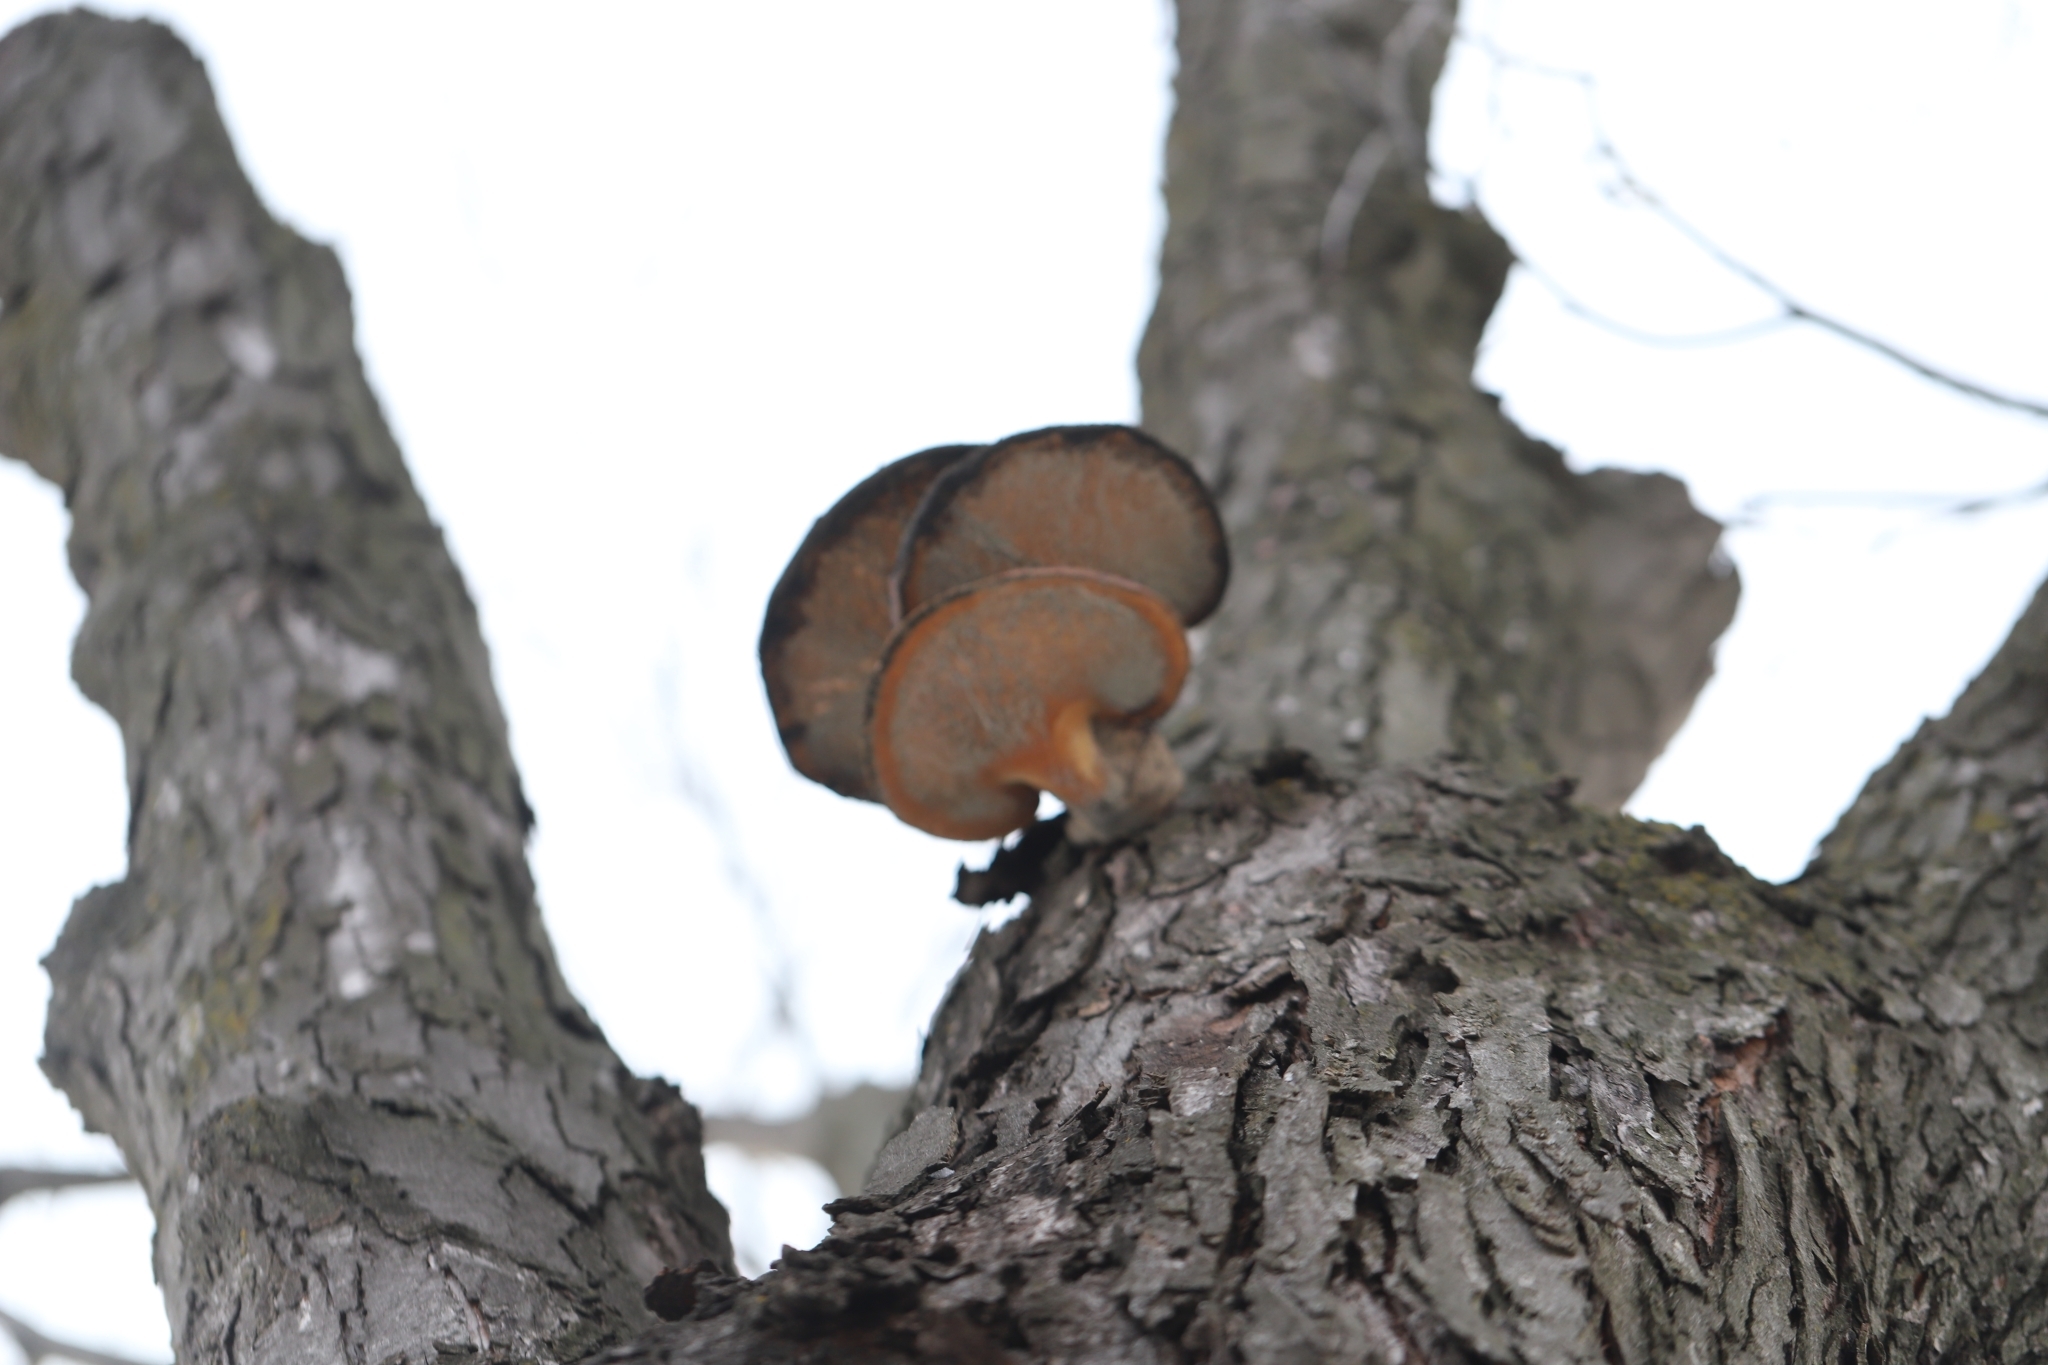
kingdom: Fungi
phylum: Basidiomycota
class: Agaricomycetes
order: Polyporales
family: Polyporaceae
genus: Cerioporus
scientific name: Cerioporus squamosus
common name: Dryad's saddle
